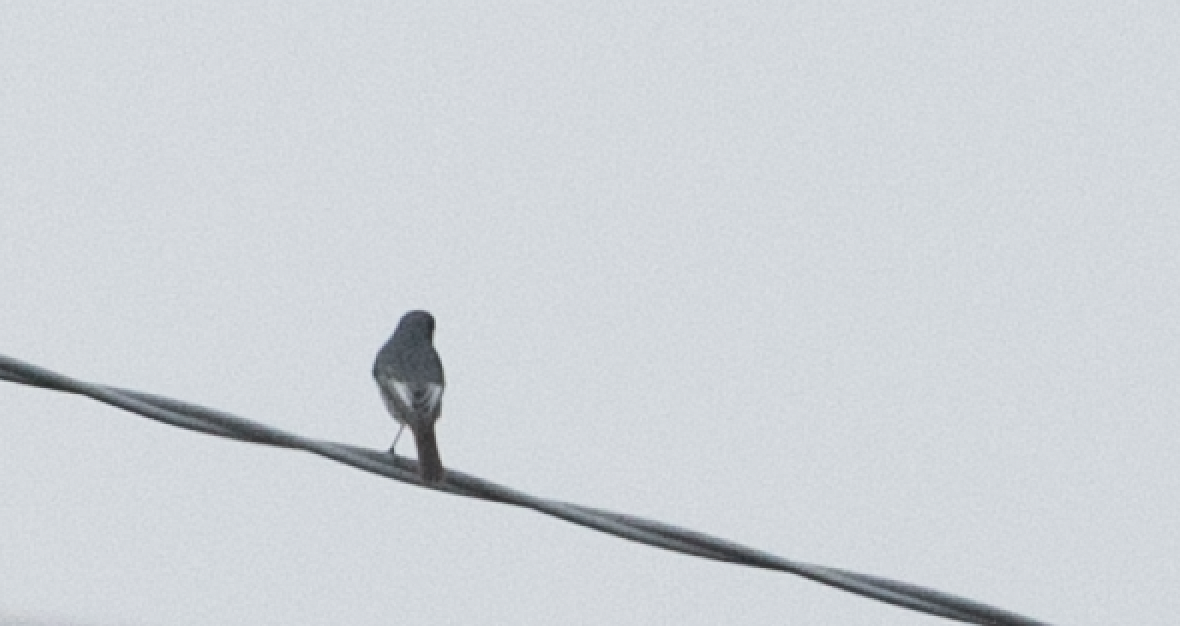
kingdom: Animalia
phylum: Chordata
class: Aves
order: Passeriformes
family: Muscicapidae
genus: Phoenicurus
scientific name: Phoenicurus ochruros
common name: Black redstart
